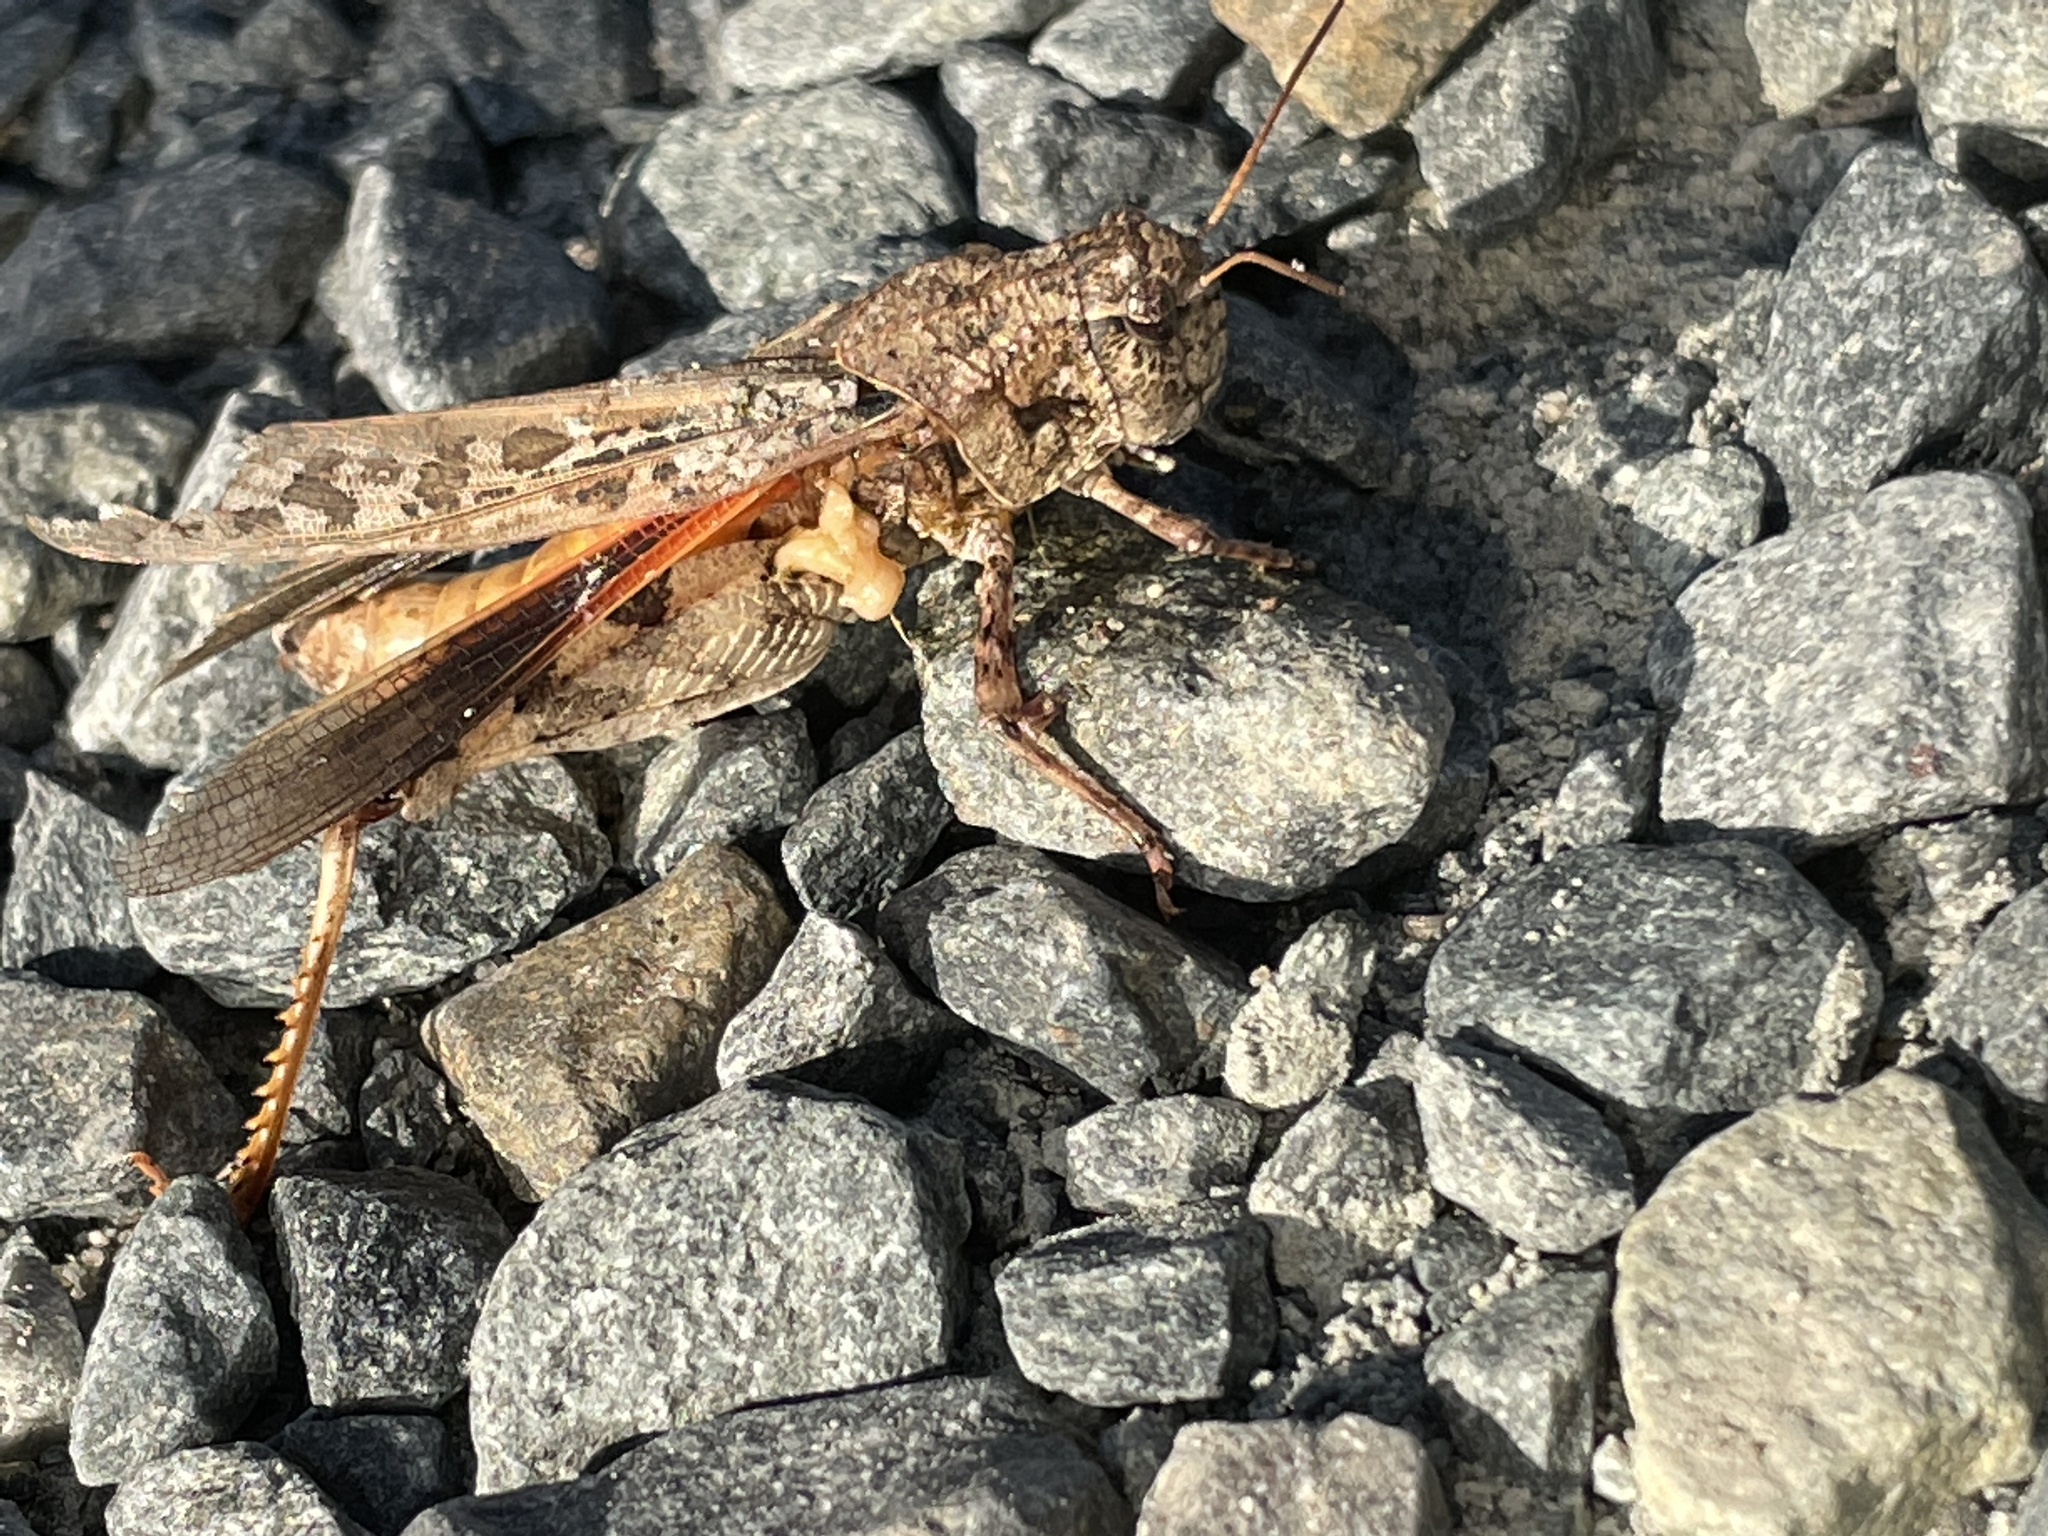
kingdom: Animalia
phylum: Arthropoda
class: Insecta
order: Orthoptera
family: Acrididae
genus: Pardalophora
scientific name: Pardalophora phoenicoptera
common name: Orange-winged grasshopper
